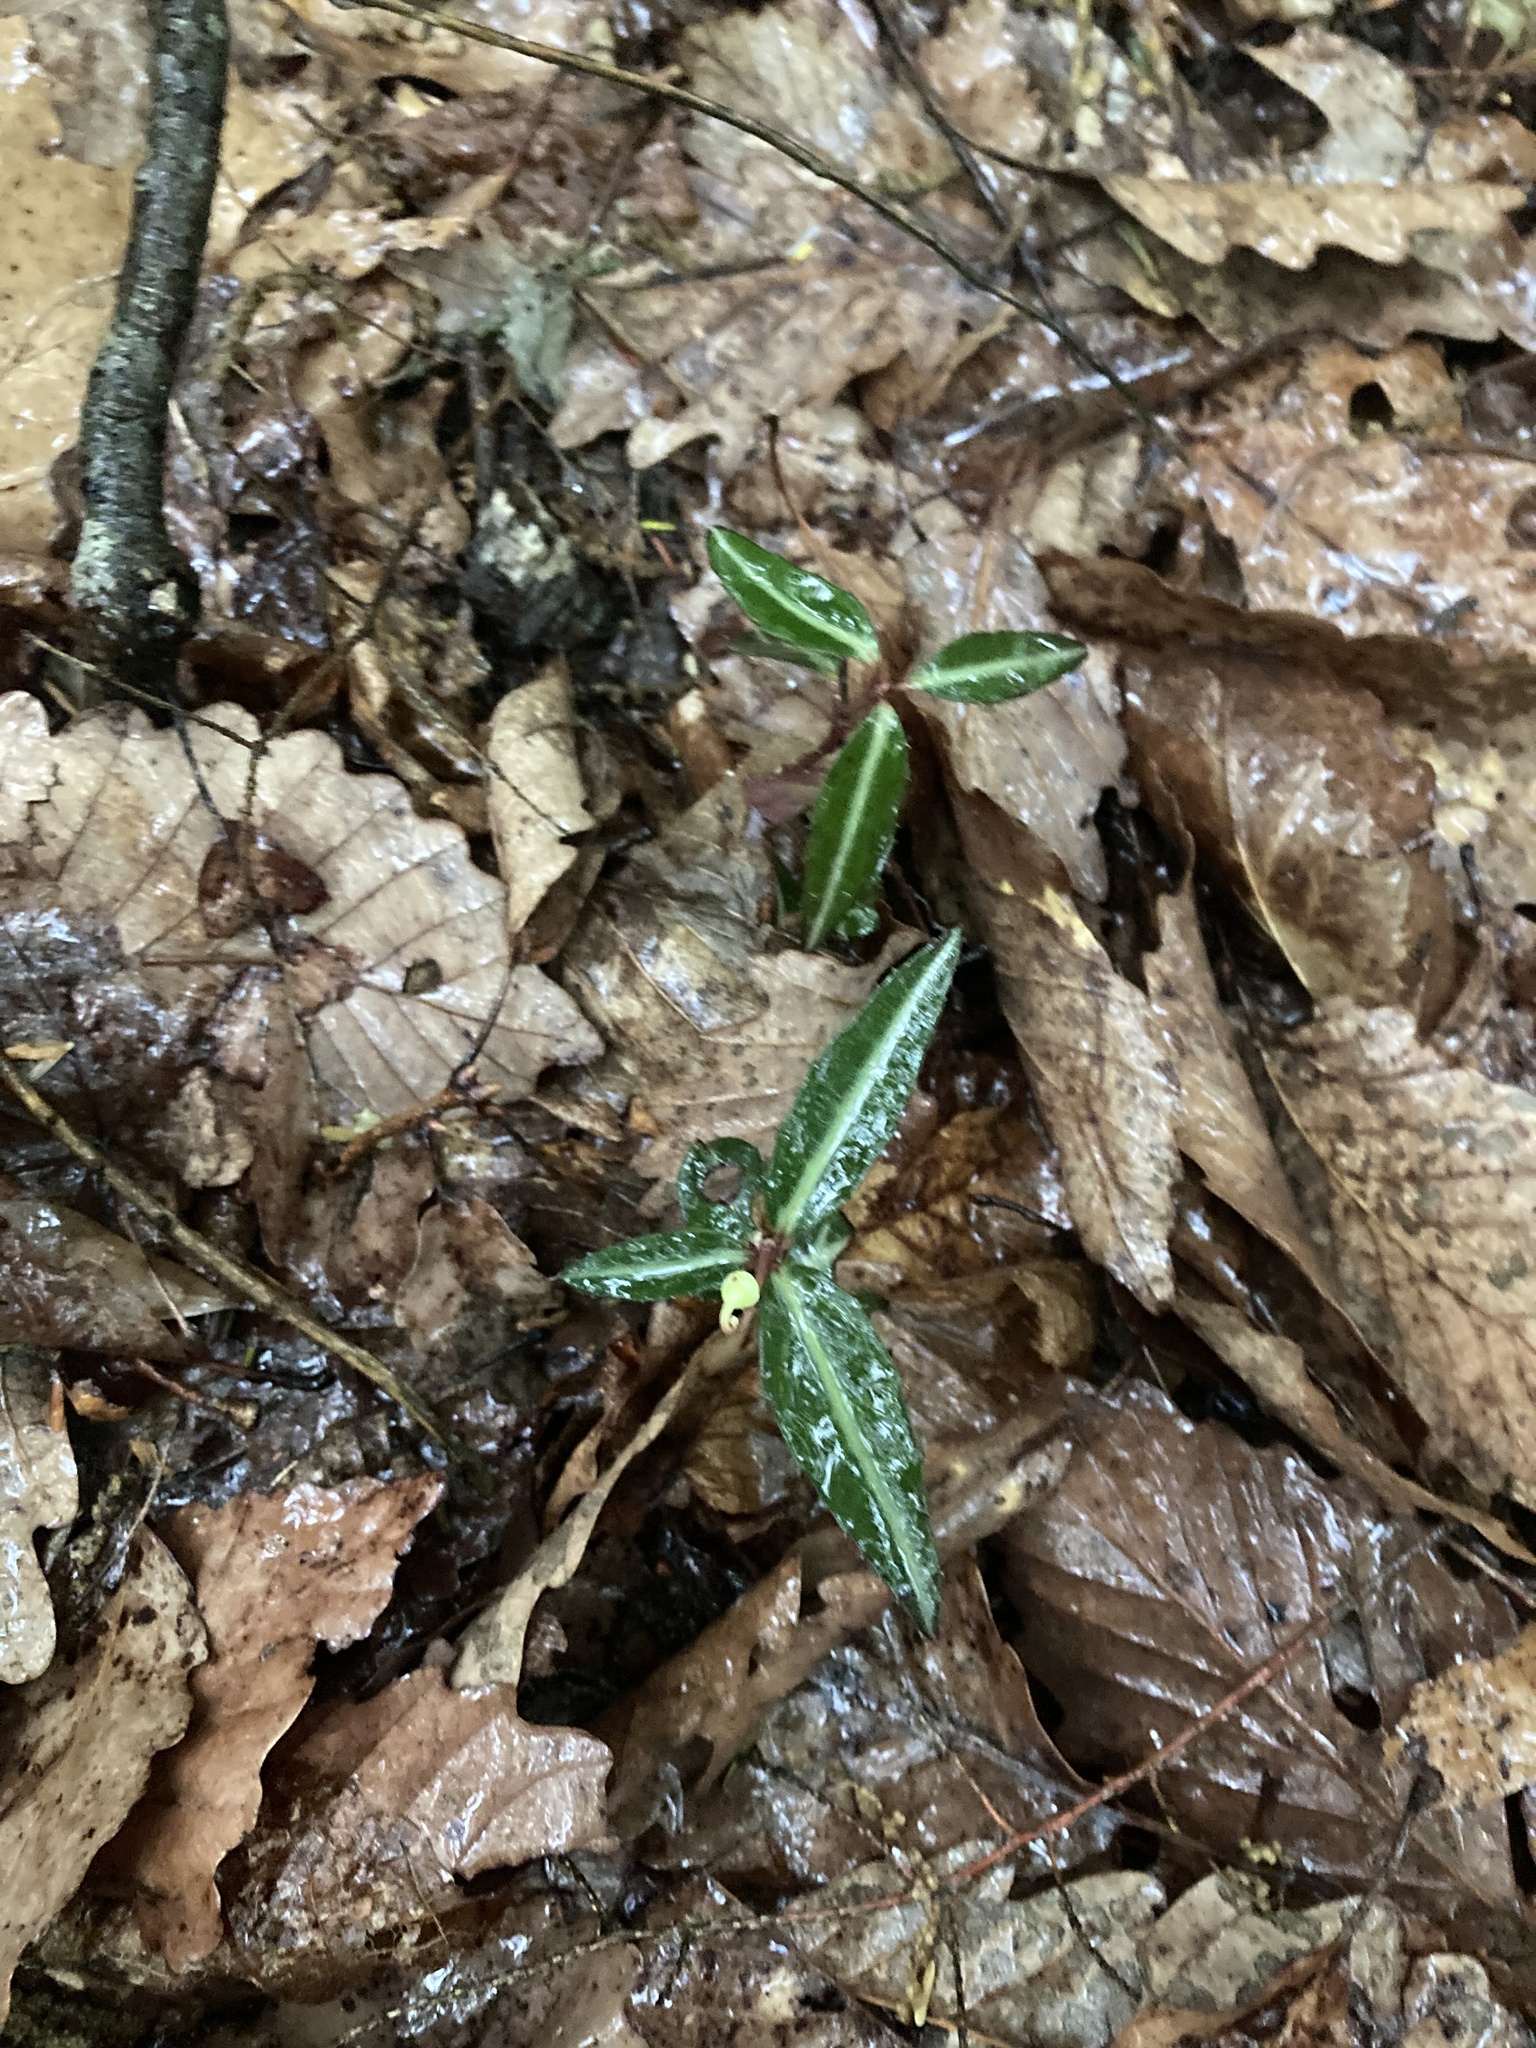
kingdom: Plantae
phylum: Tracheophyta
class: Magnoliopsida
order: Ericales
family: Ericaceae
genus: Chimaphila
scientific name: Chimaphila maculata
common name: Spotted pipsissewa
